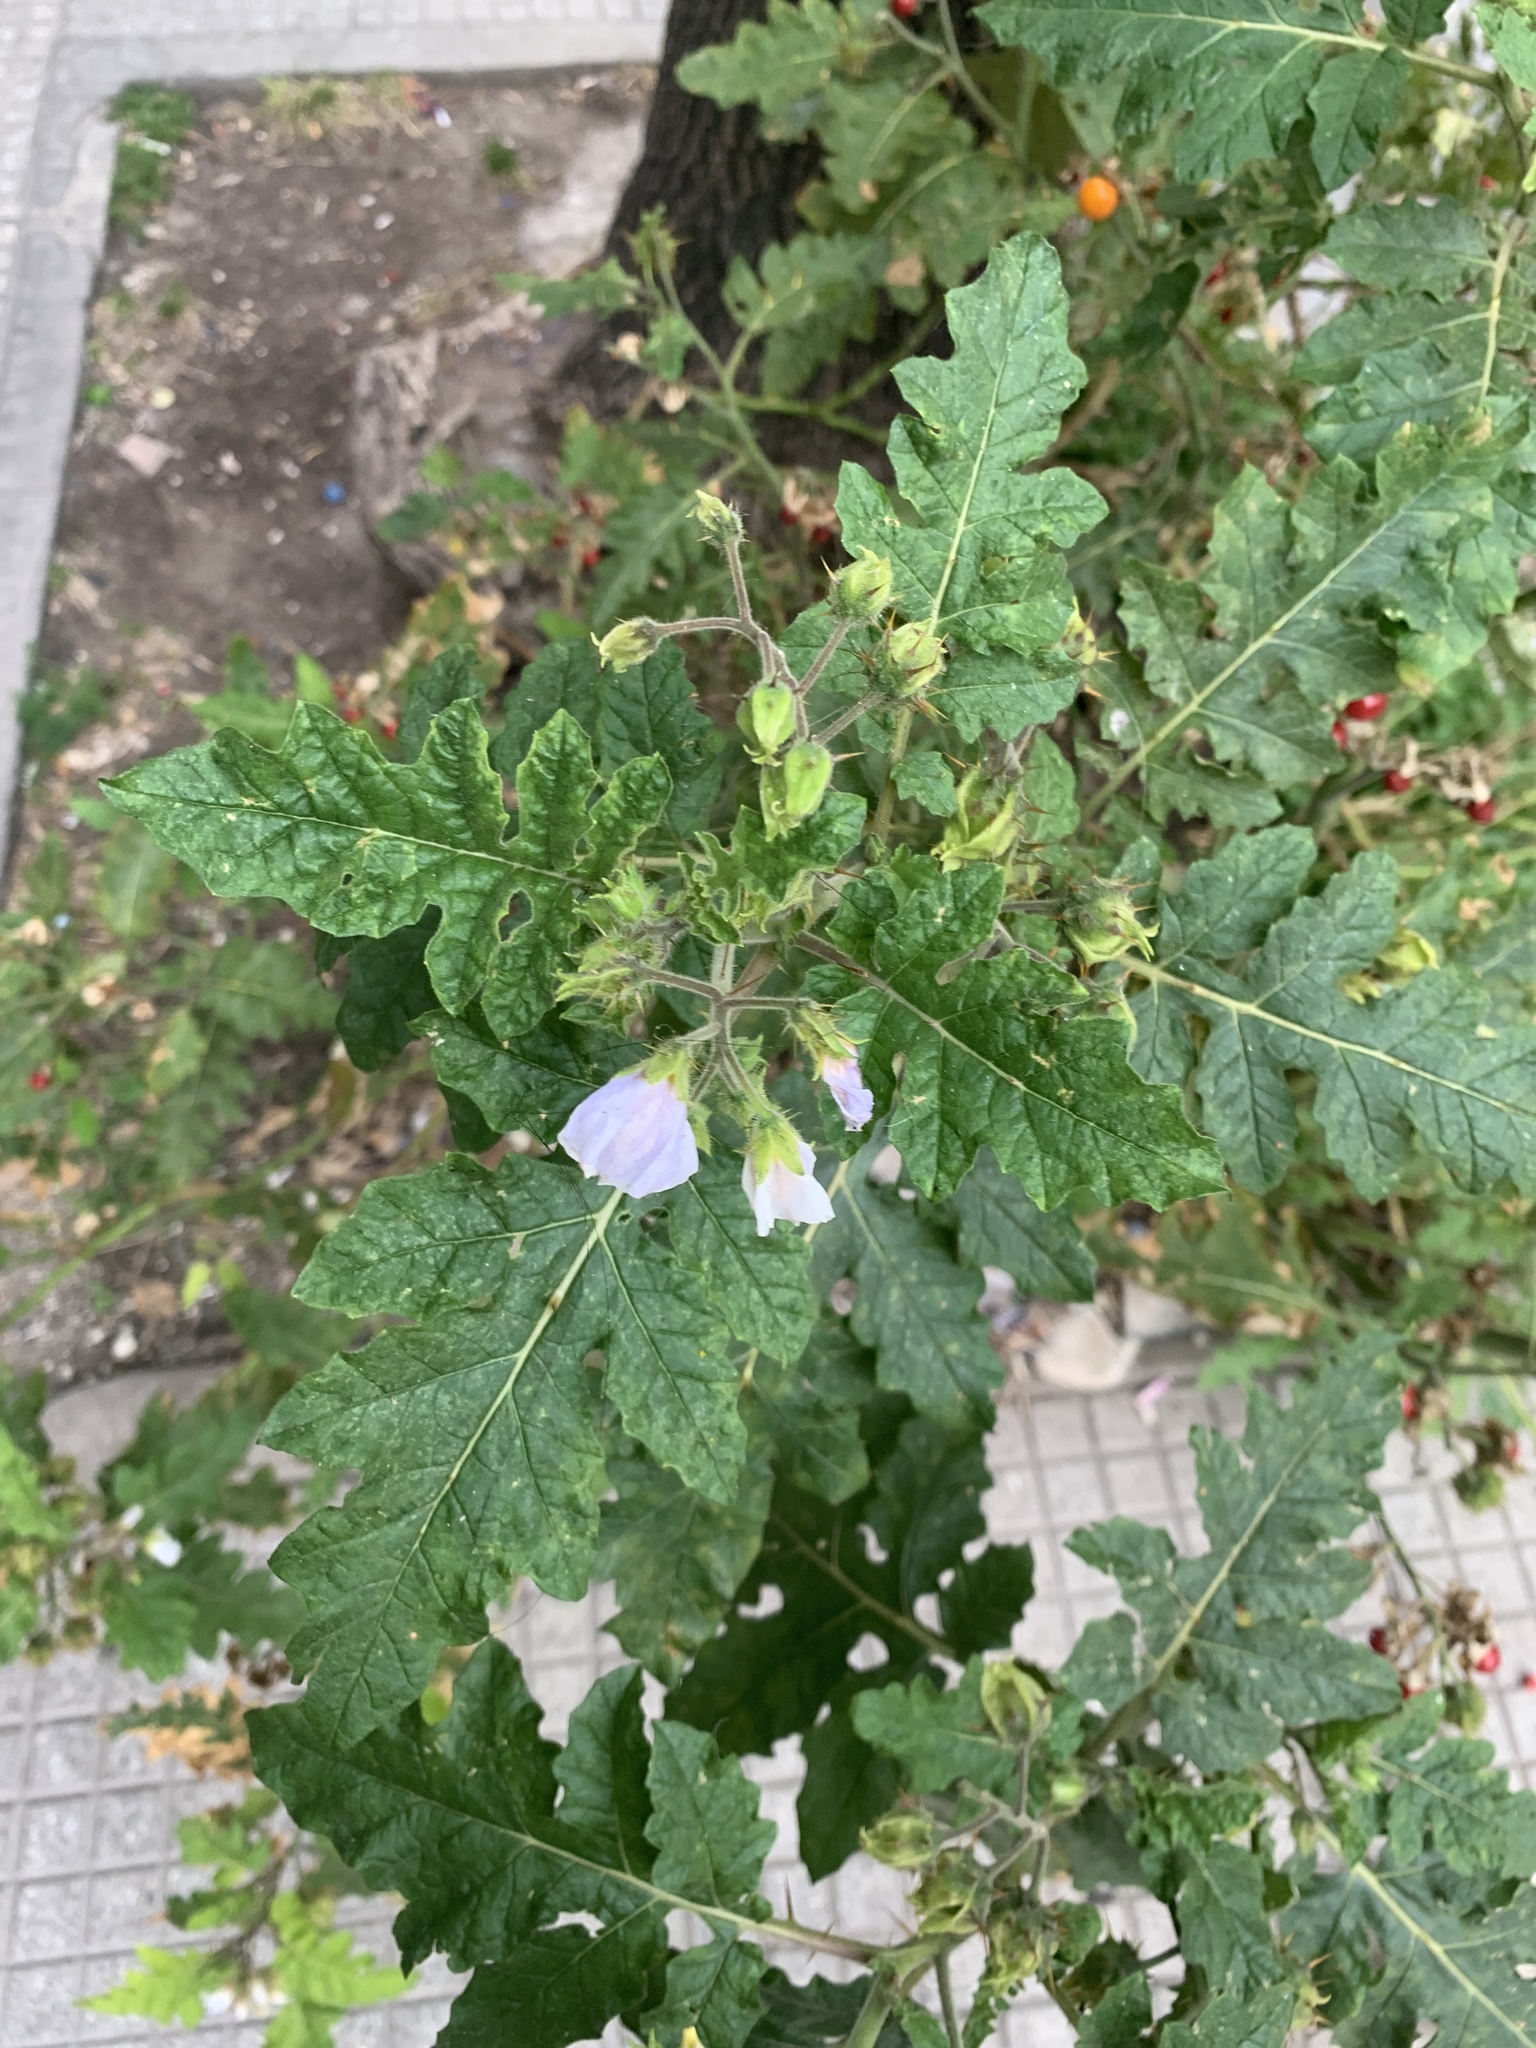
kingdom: Plantae
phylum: Tracheophyta
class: Magnoliopsida
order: Solanales
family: Solanaceae
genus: Solanum
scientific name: Solanum sisymbriifolium
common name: Red buffalo-bur
